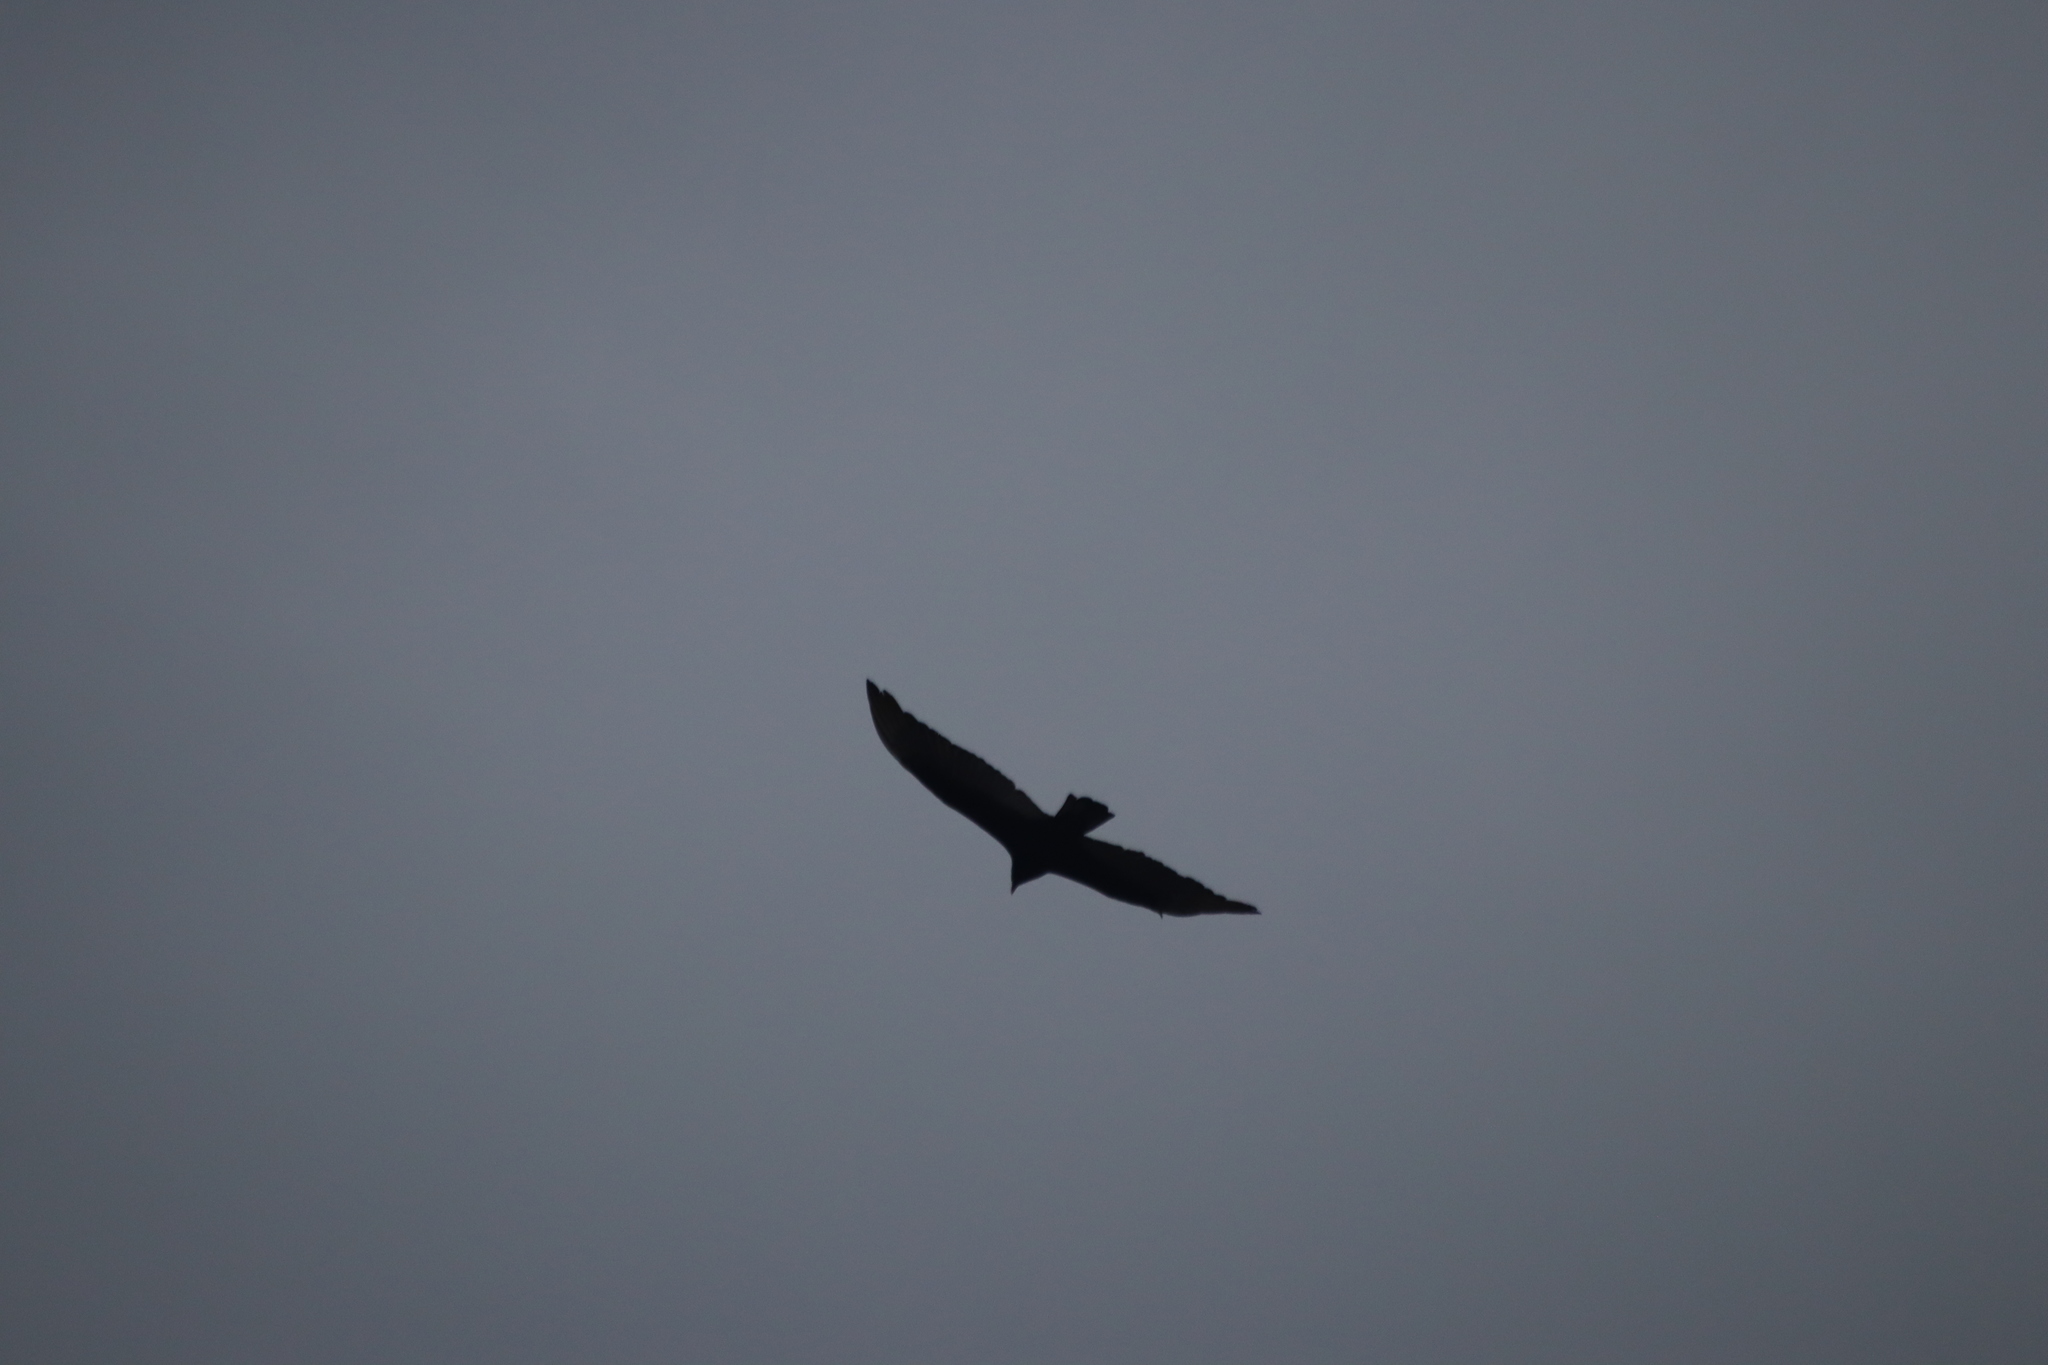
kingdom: Animalia
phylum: Chordata
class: Aves
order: Accipitriformes
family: Cathartidae
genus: Cathartes
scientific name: Cathartes aura
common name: Turkey vulture
